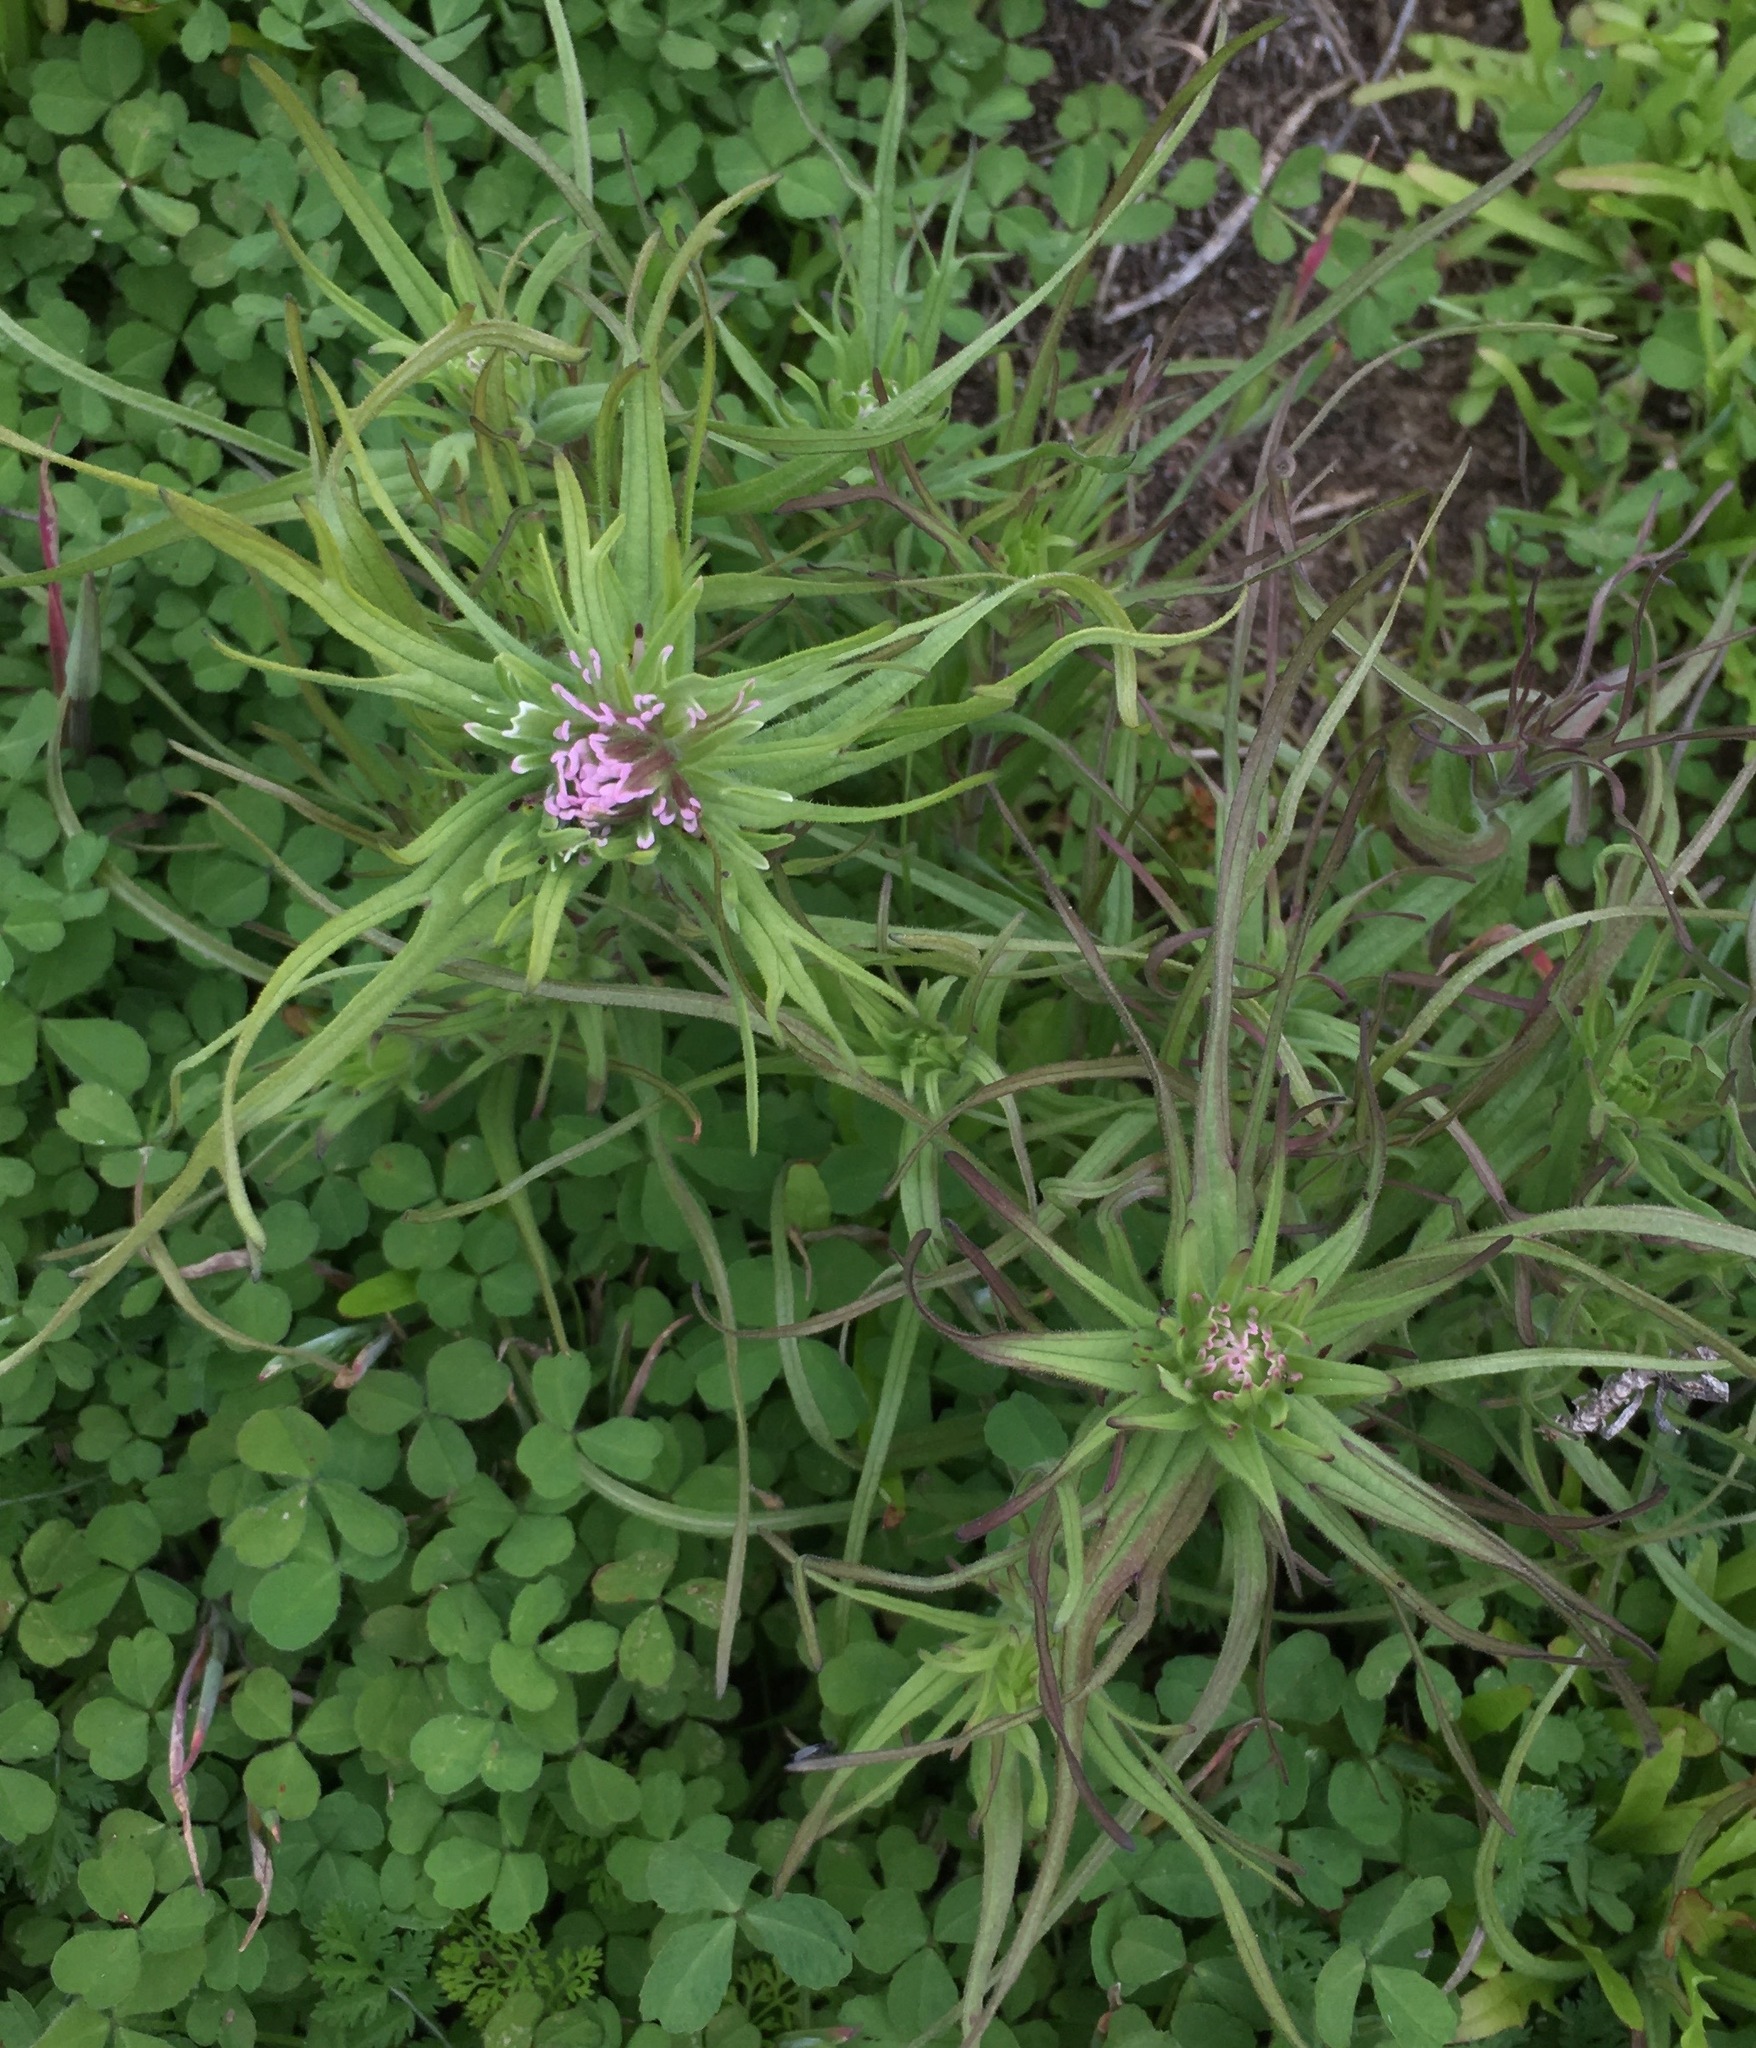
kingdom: Plantae
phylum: Tracheophyta
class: Magnoliopsida
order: Lamiales
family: Orobanchaceae
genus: Castilleja
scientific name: Castilleja densiflora
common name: Dense-flower indian paintbrush
